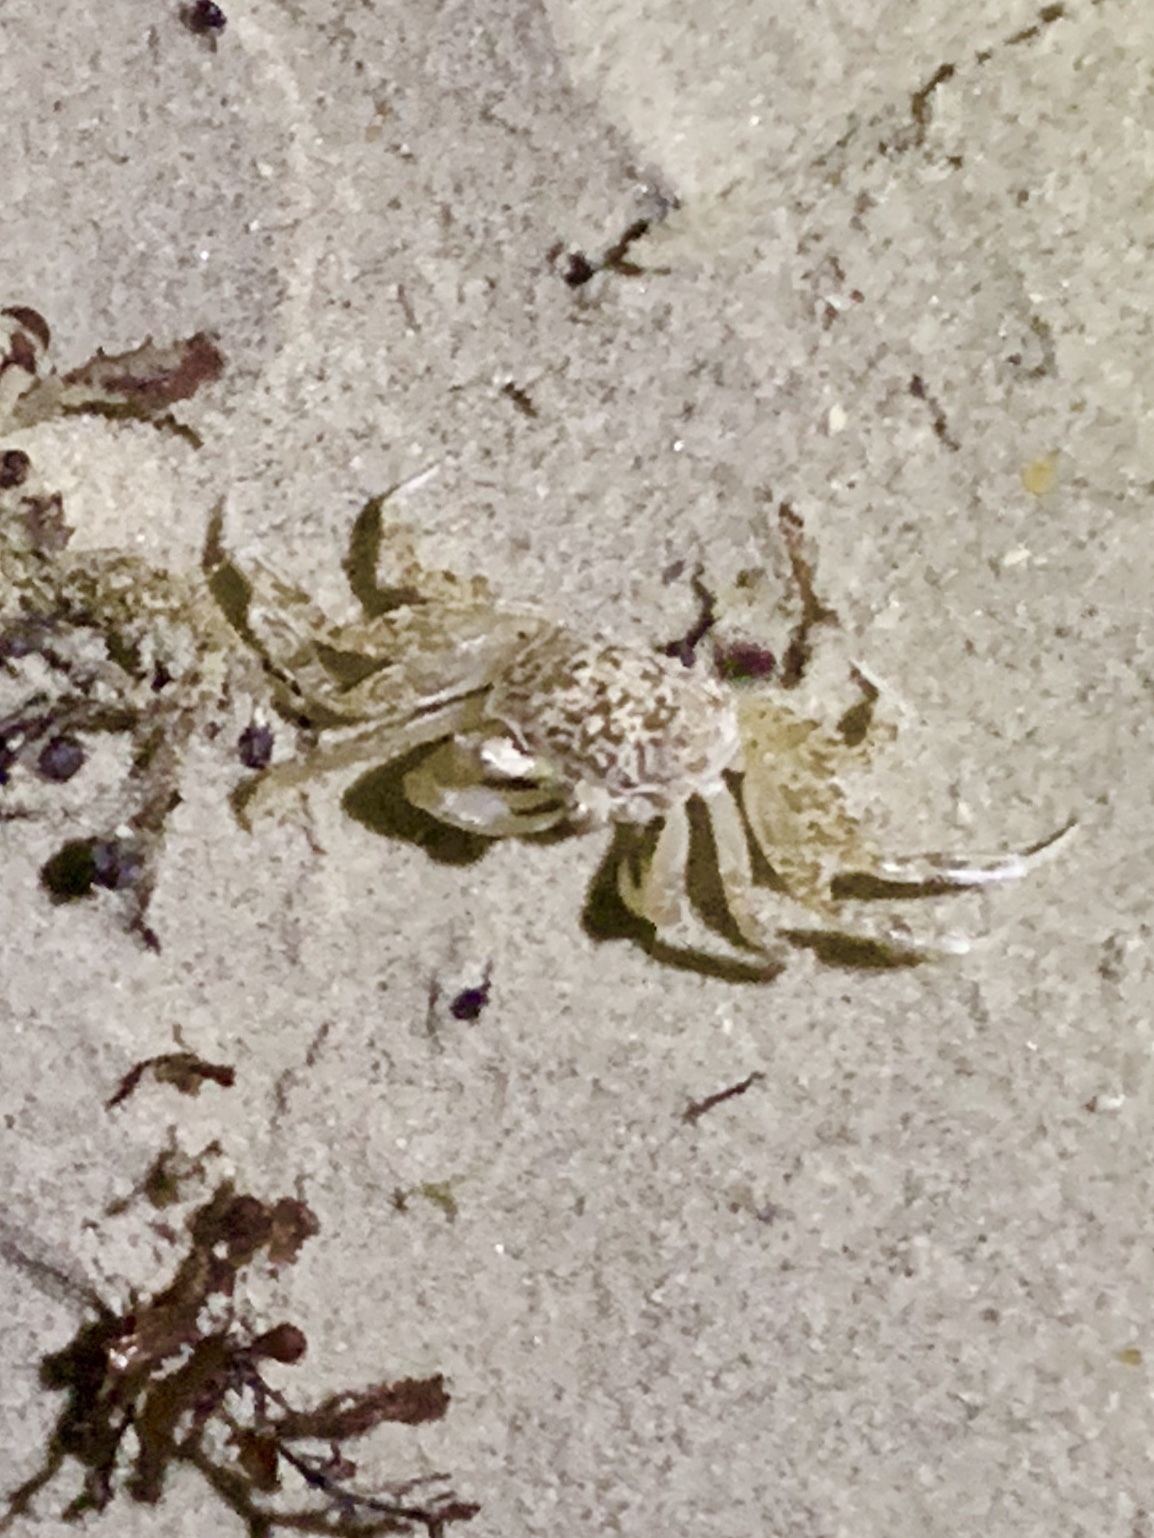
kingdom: Animalia
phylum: Arthropoda
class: Malacostraca
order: Decapoda
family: Ocypodidae
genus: Ocypode
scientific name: Ocypode quadrata
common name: Ghost crab
